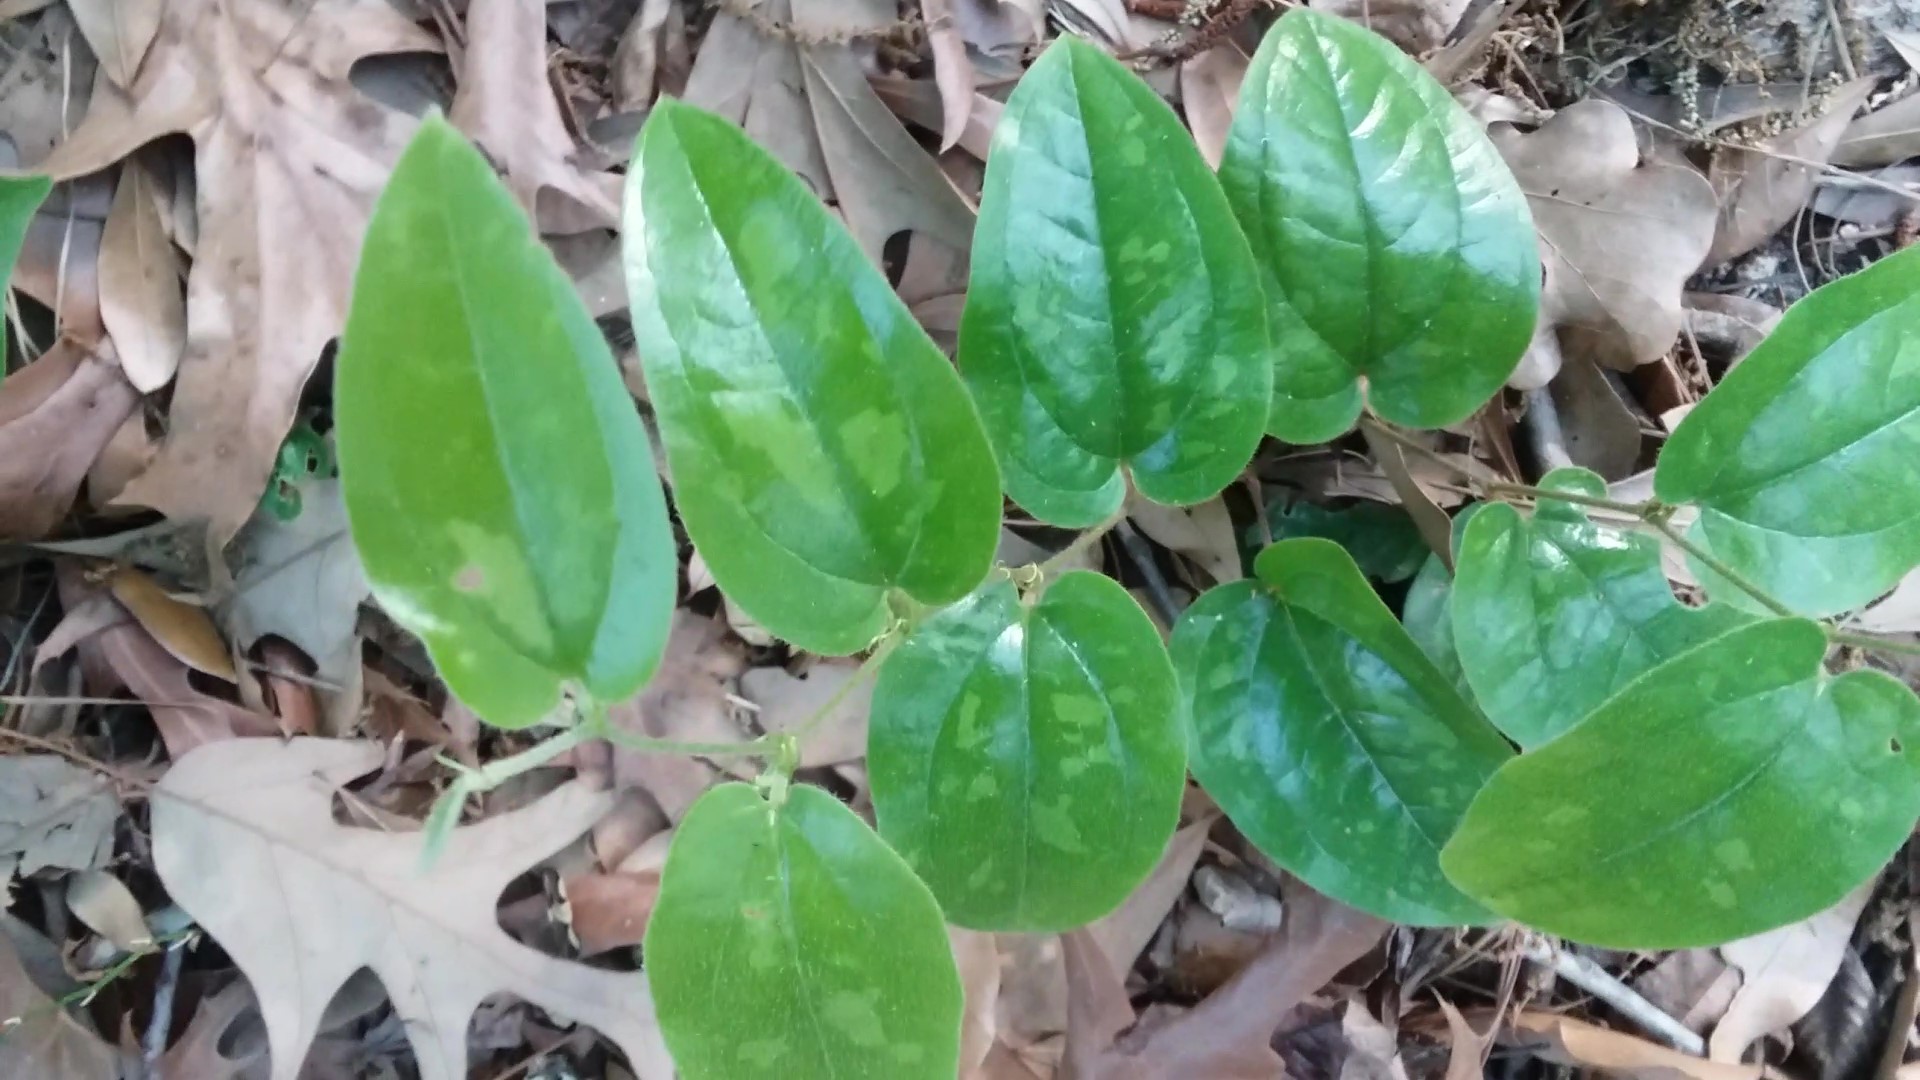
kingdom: Plantae
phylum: Tracheophyta
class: Liliopsida
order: Liliales
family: Smilacaceae
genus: Smilax
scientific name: Smilax pumila
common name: Sarsaparilla-vine
